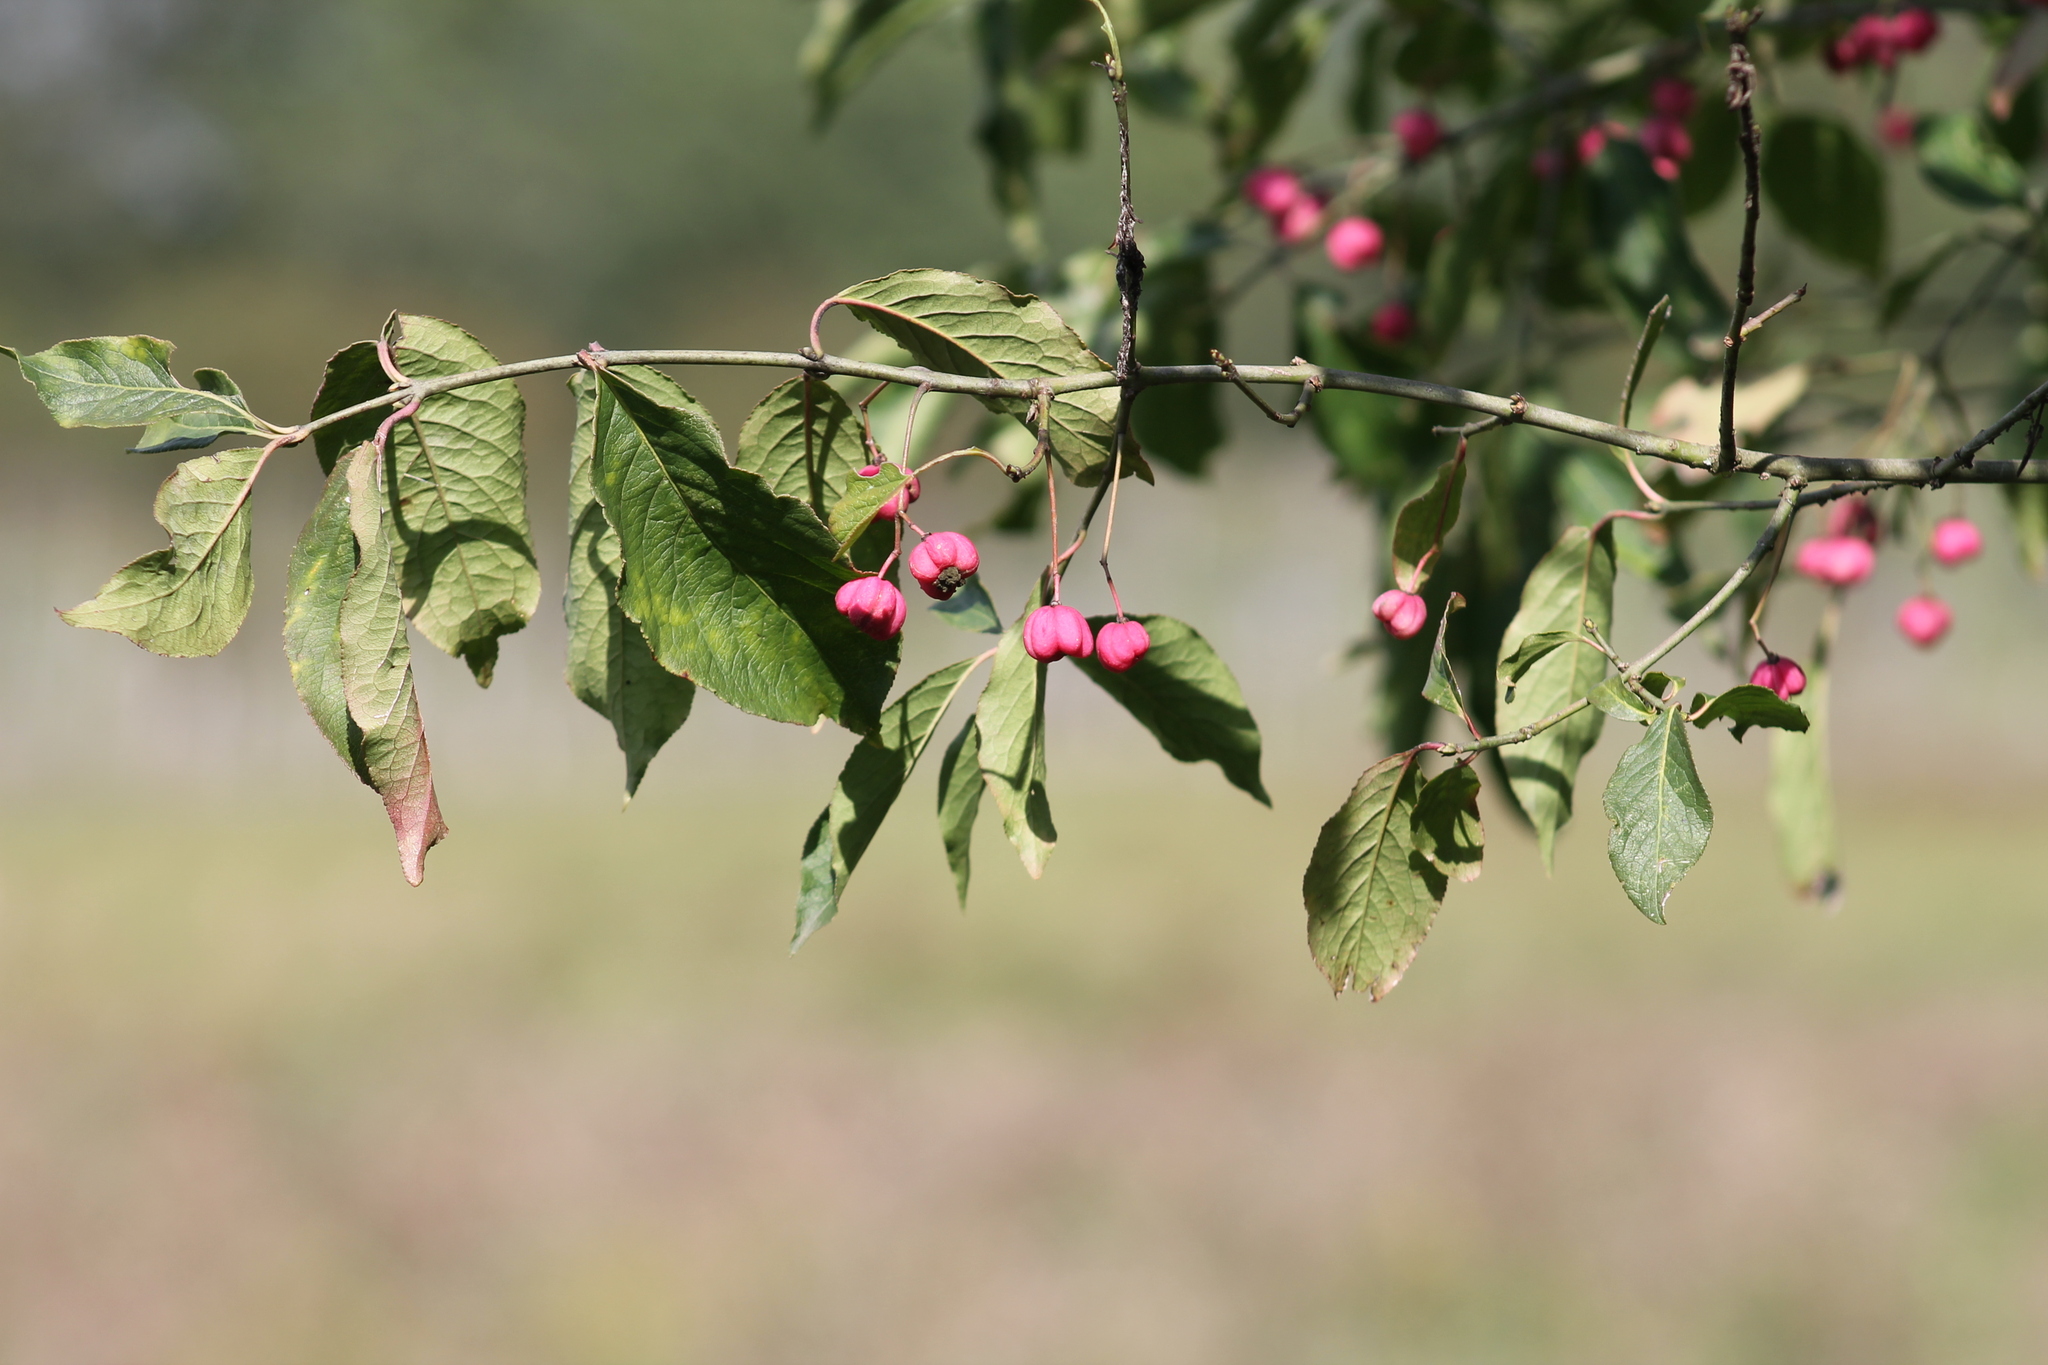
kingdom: Plantae
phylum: Tracheophyta
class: Magnoliopsida
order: Celastrales
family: Celastraceae
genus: Euonymus
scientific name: Euonymus europaeus
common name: Spindle
